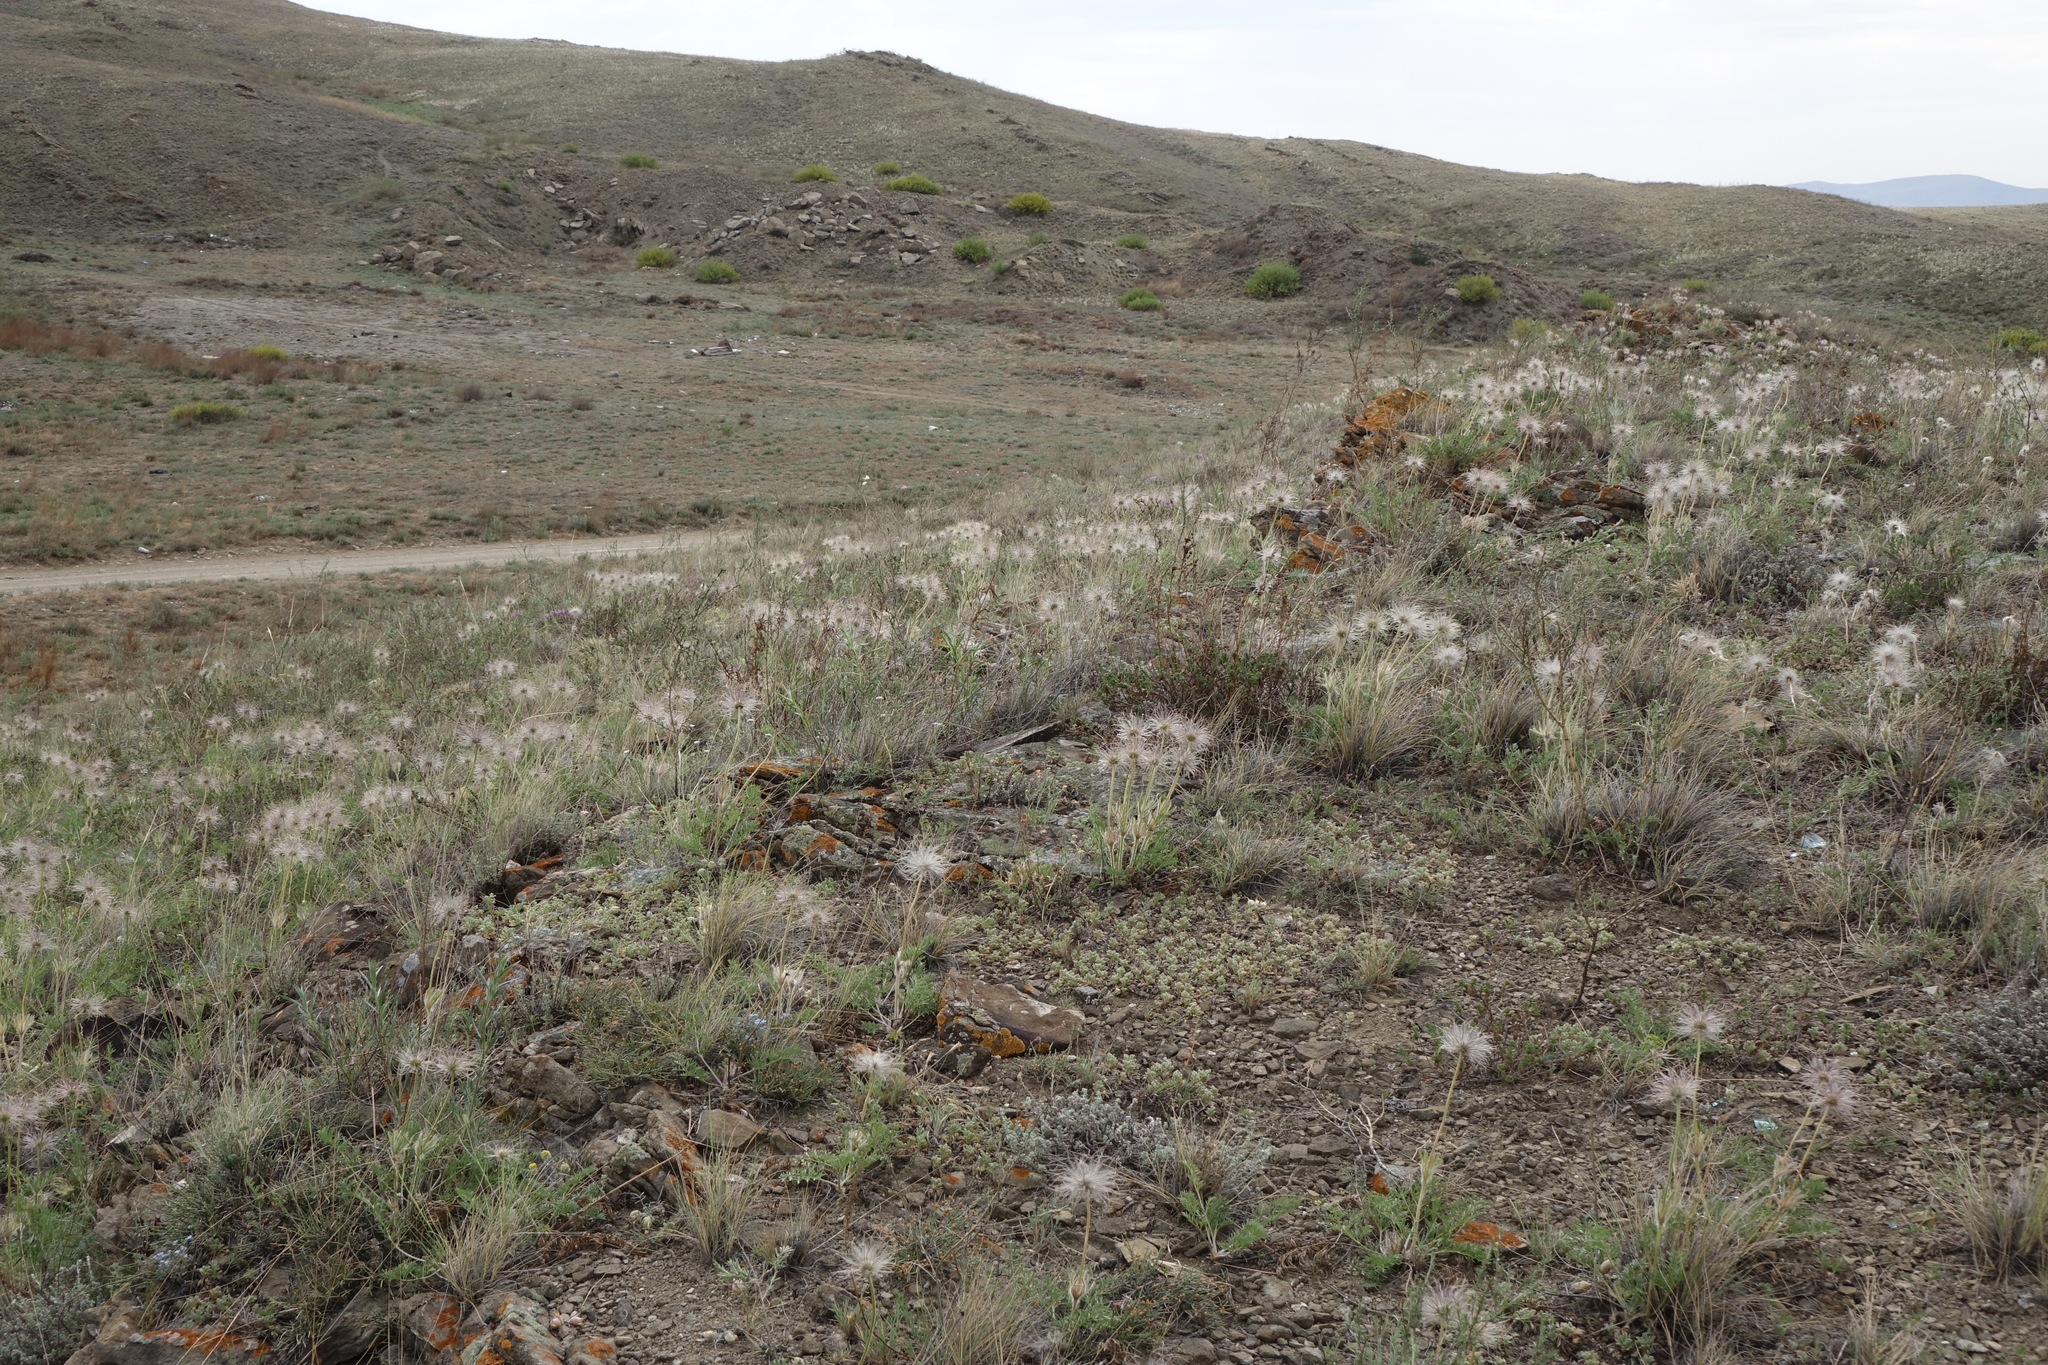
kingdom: Plantae
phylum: Tracheophyta
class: Magnoliopsida
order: Ranunculales
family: Ranunculaceae
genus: Pulsatilla
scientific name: Pulsatilla turczaninovii
